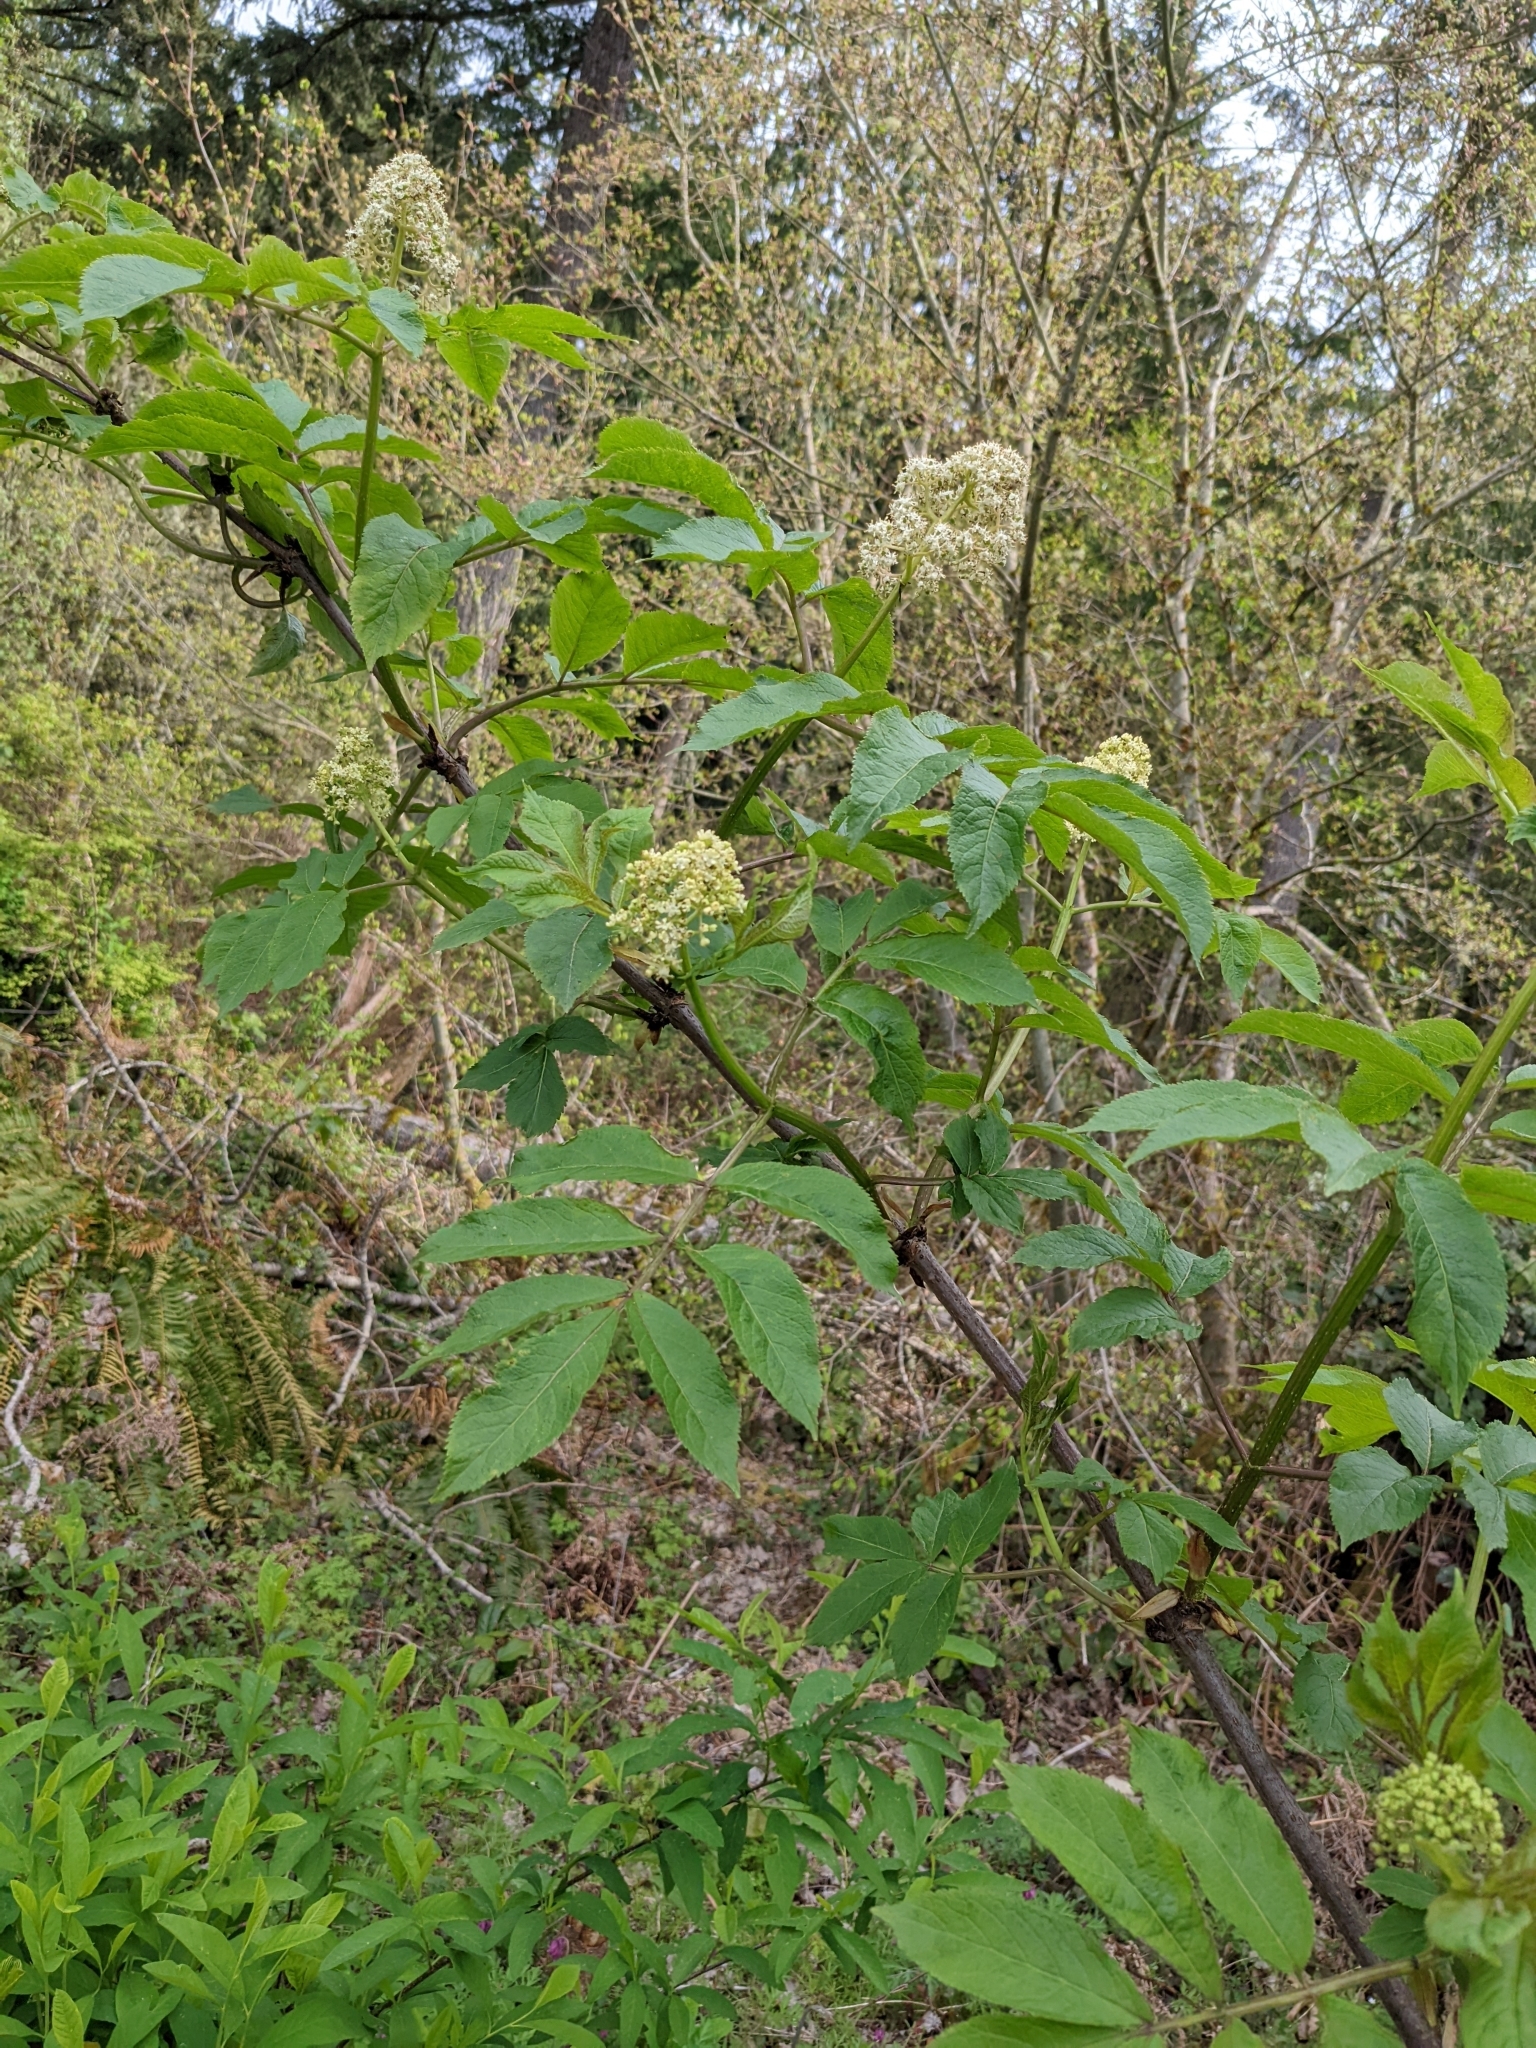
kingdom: Plantae
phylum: Tracheophyta
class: Magnoliopsida
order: Dipsacales
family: Viburnaceae
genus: Sambucus
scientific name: Sambucus racemosa
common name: Red-berried elder
